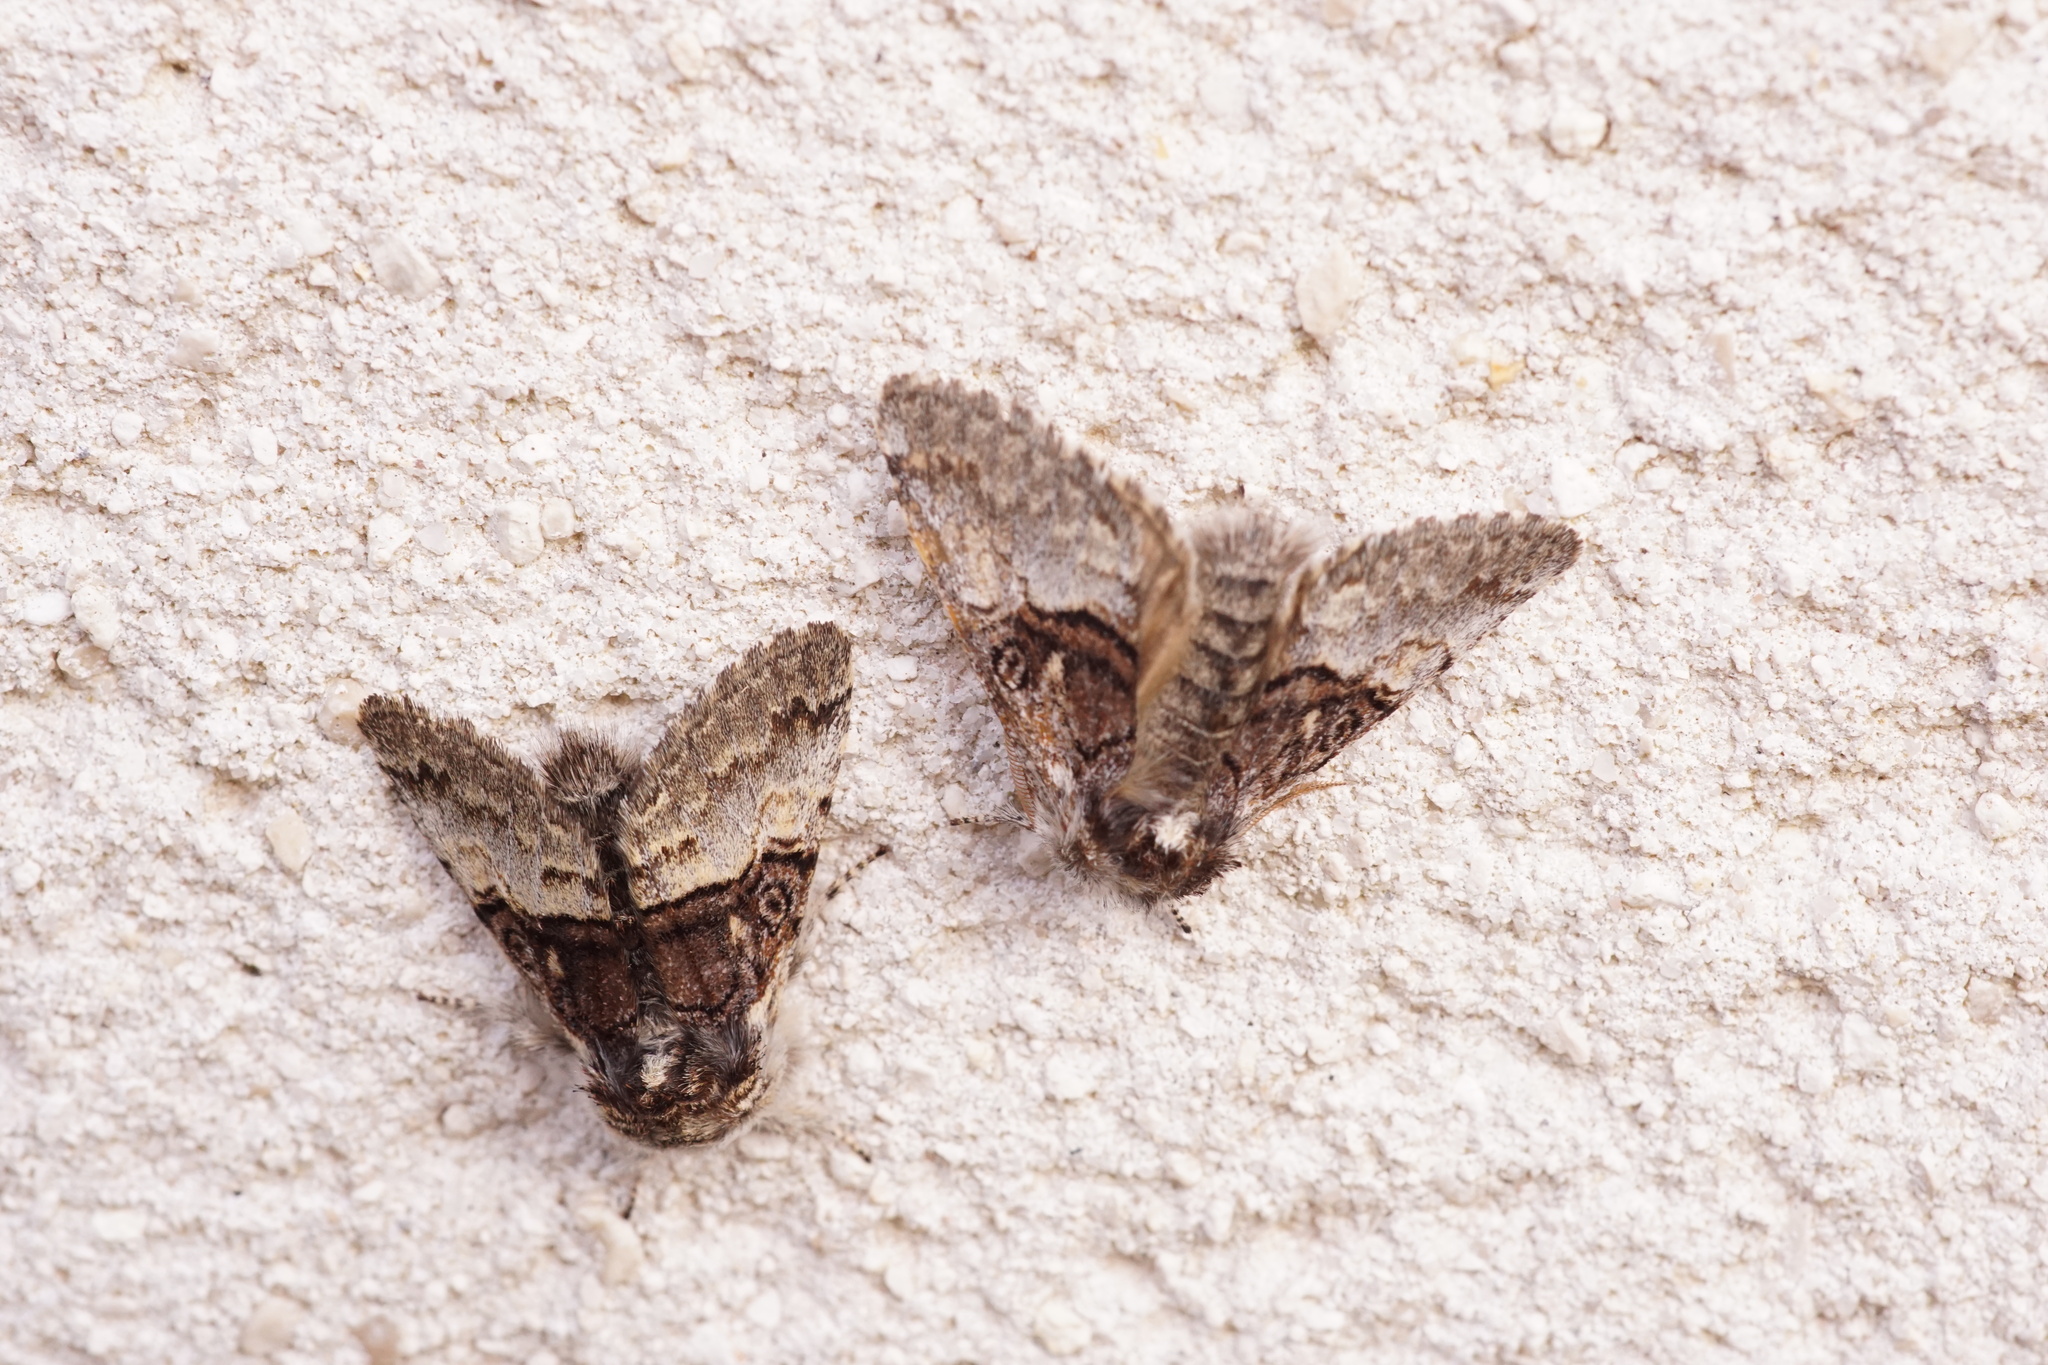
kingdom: Animalia
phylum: Arthropoda
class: Insecta
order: Lepidoptera
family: Noctuidae
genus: Colocasia
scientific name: Colocasia coryli
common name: Nut-tree tussock
